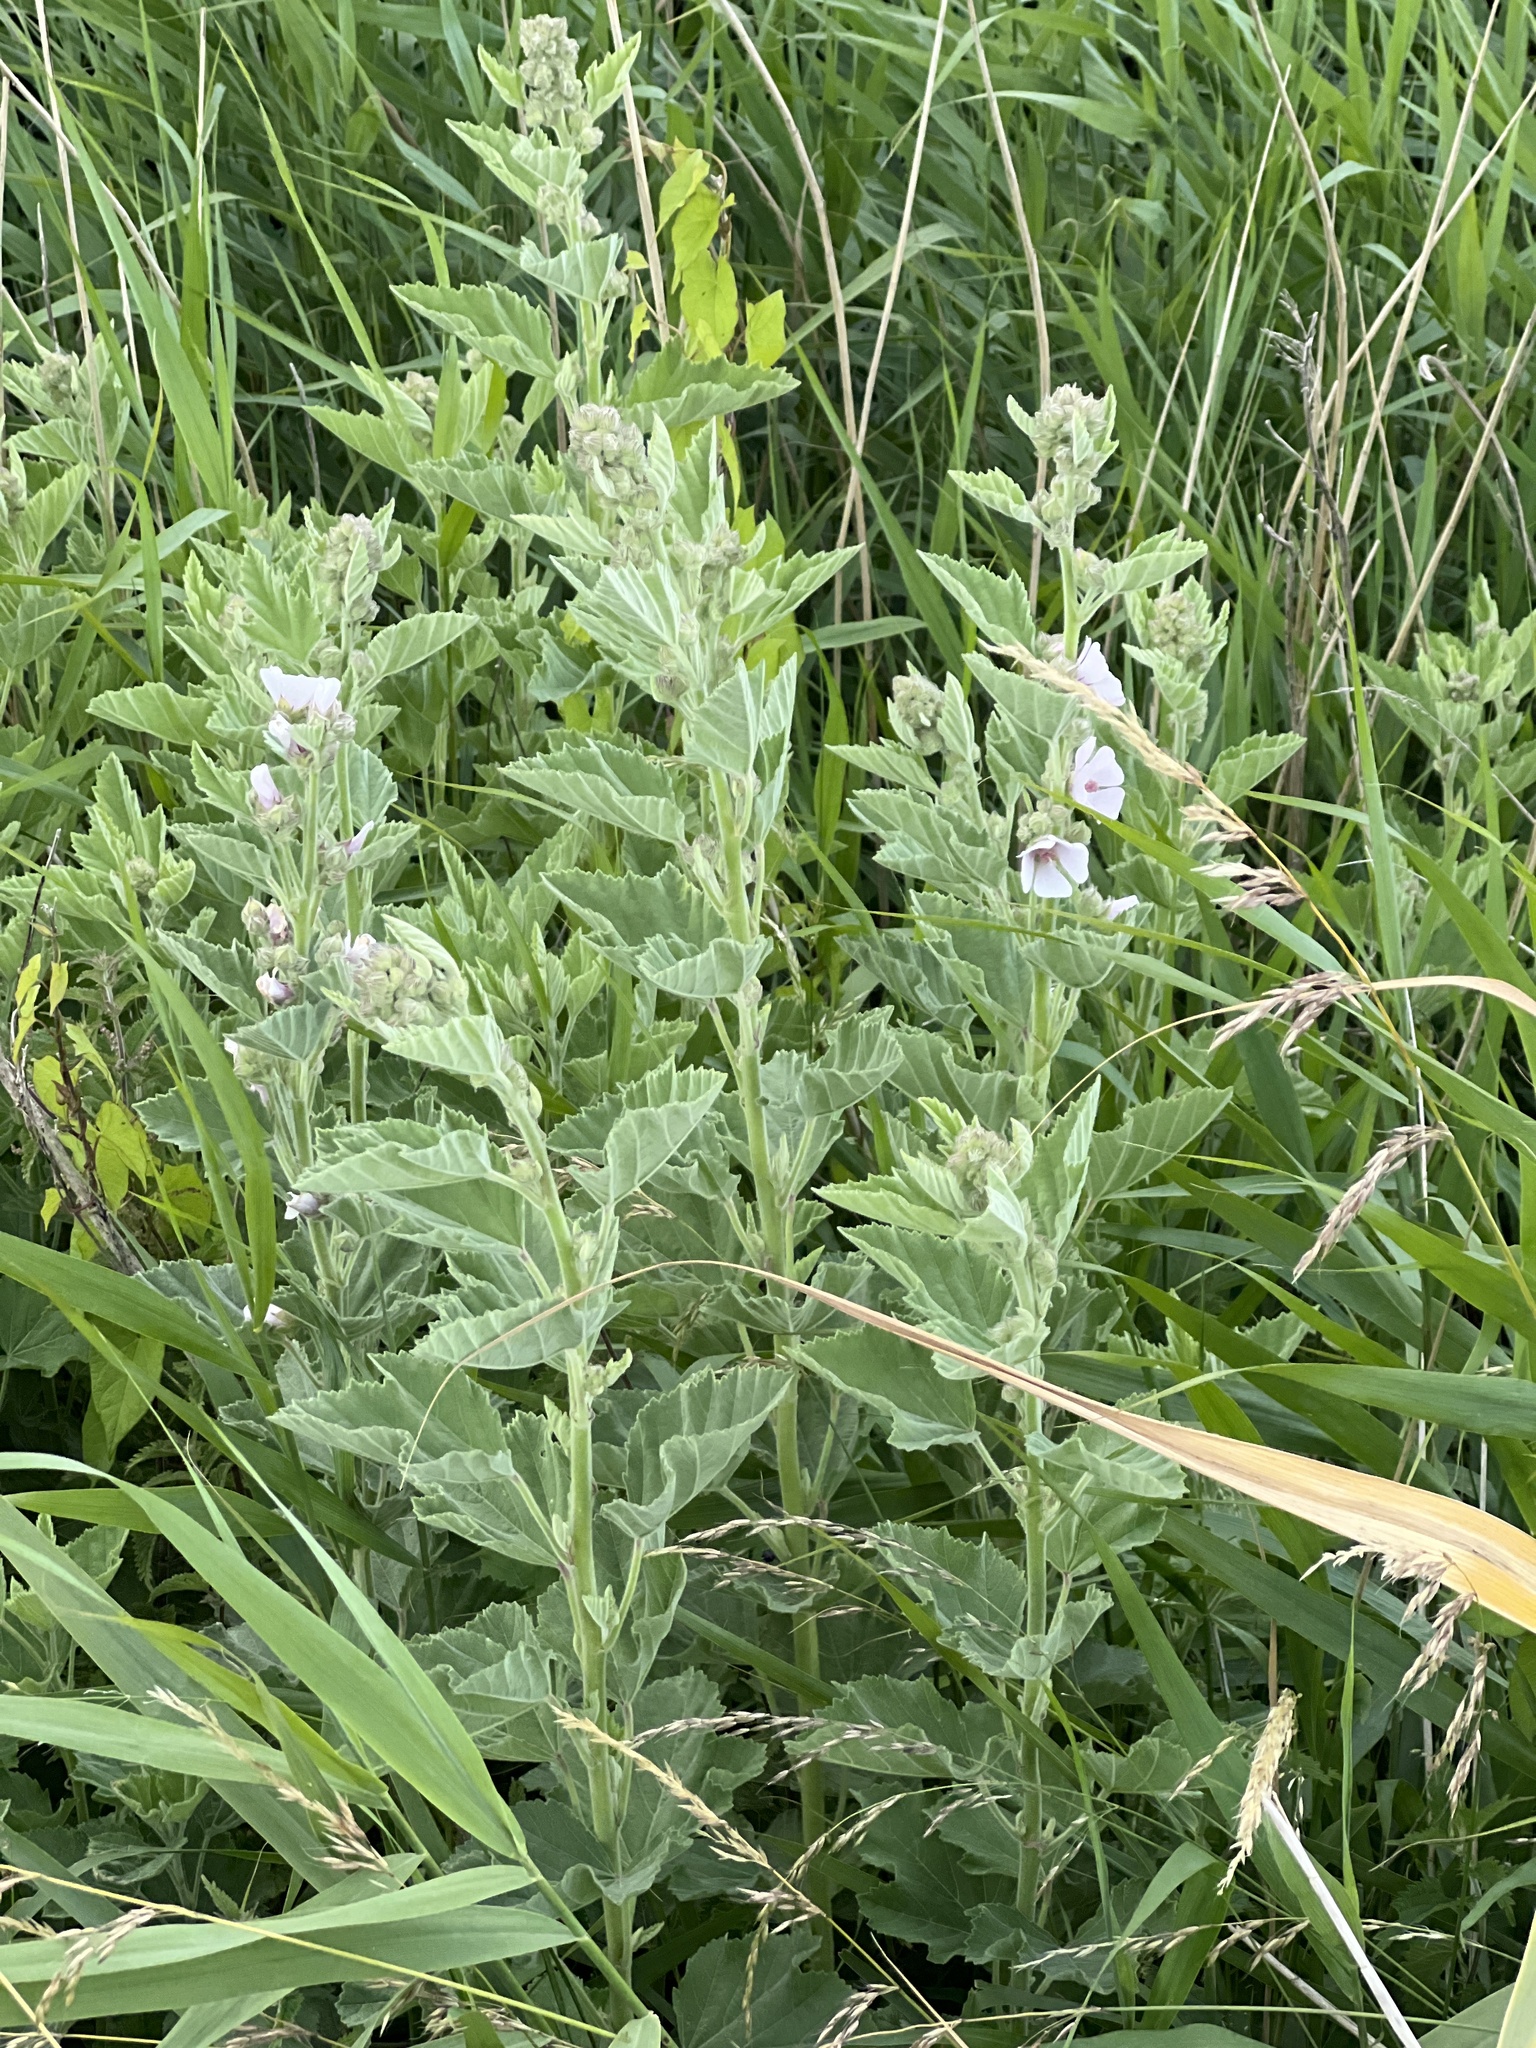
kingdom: Plantae
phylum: Tracheophyta
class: Magnoliopsida
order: Malvales
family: Malvaceae
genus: Althaea
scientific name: Althaea officinalis
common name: Marsh-mallow
